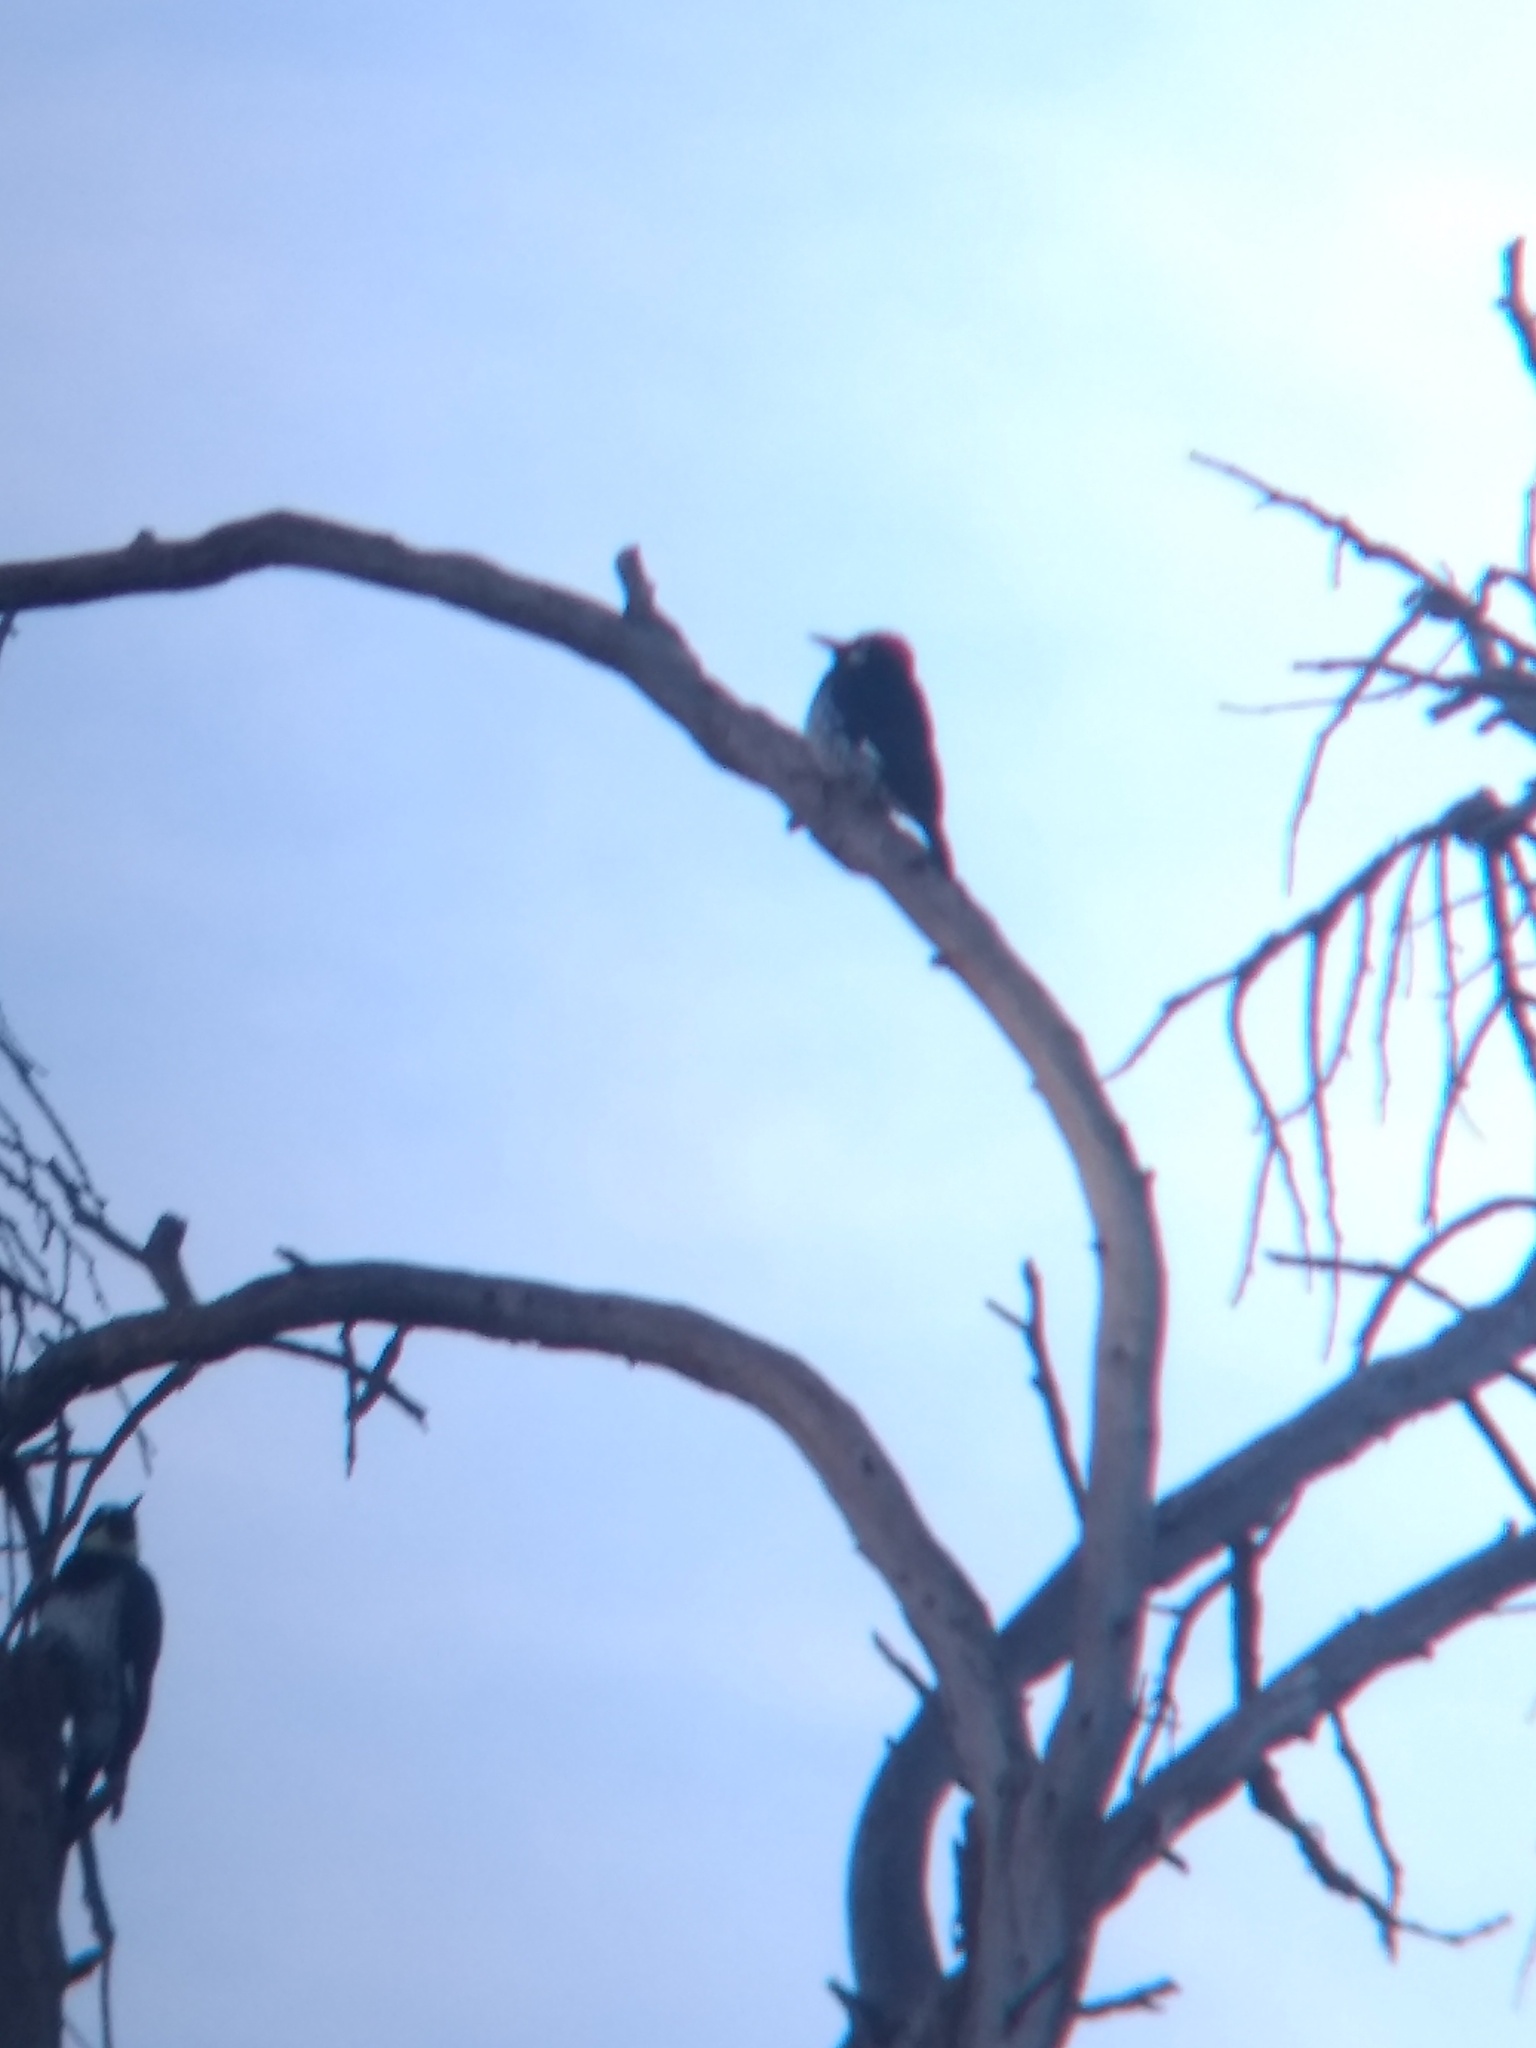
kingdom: Animalia
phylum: Chordata
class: Aves
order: Piciformes
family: Picidae
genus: Melanerpes
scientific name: Melanerpes formicivorus
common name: Acorn woodpecker
